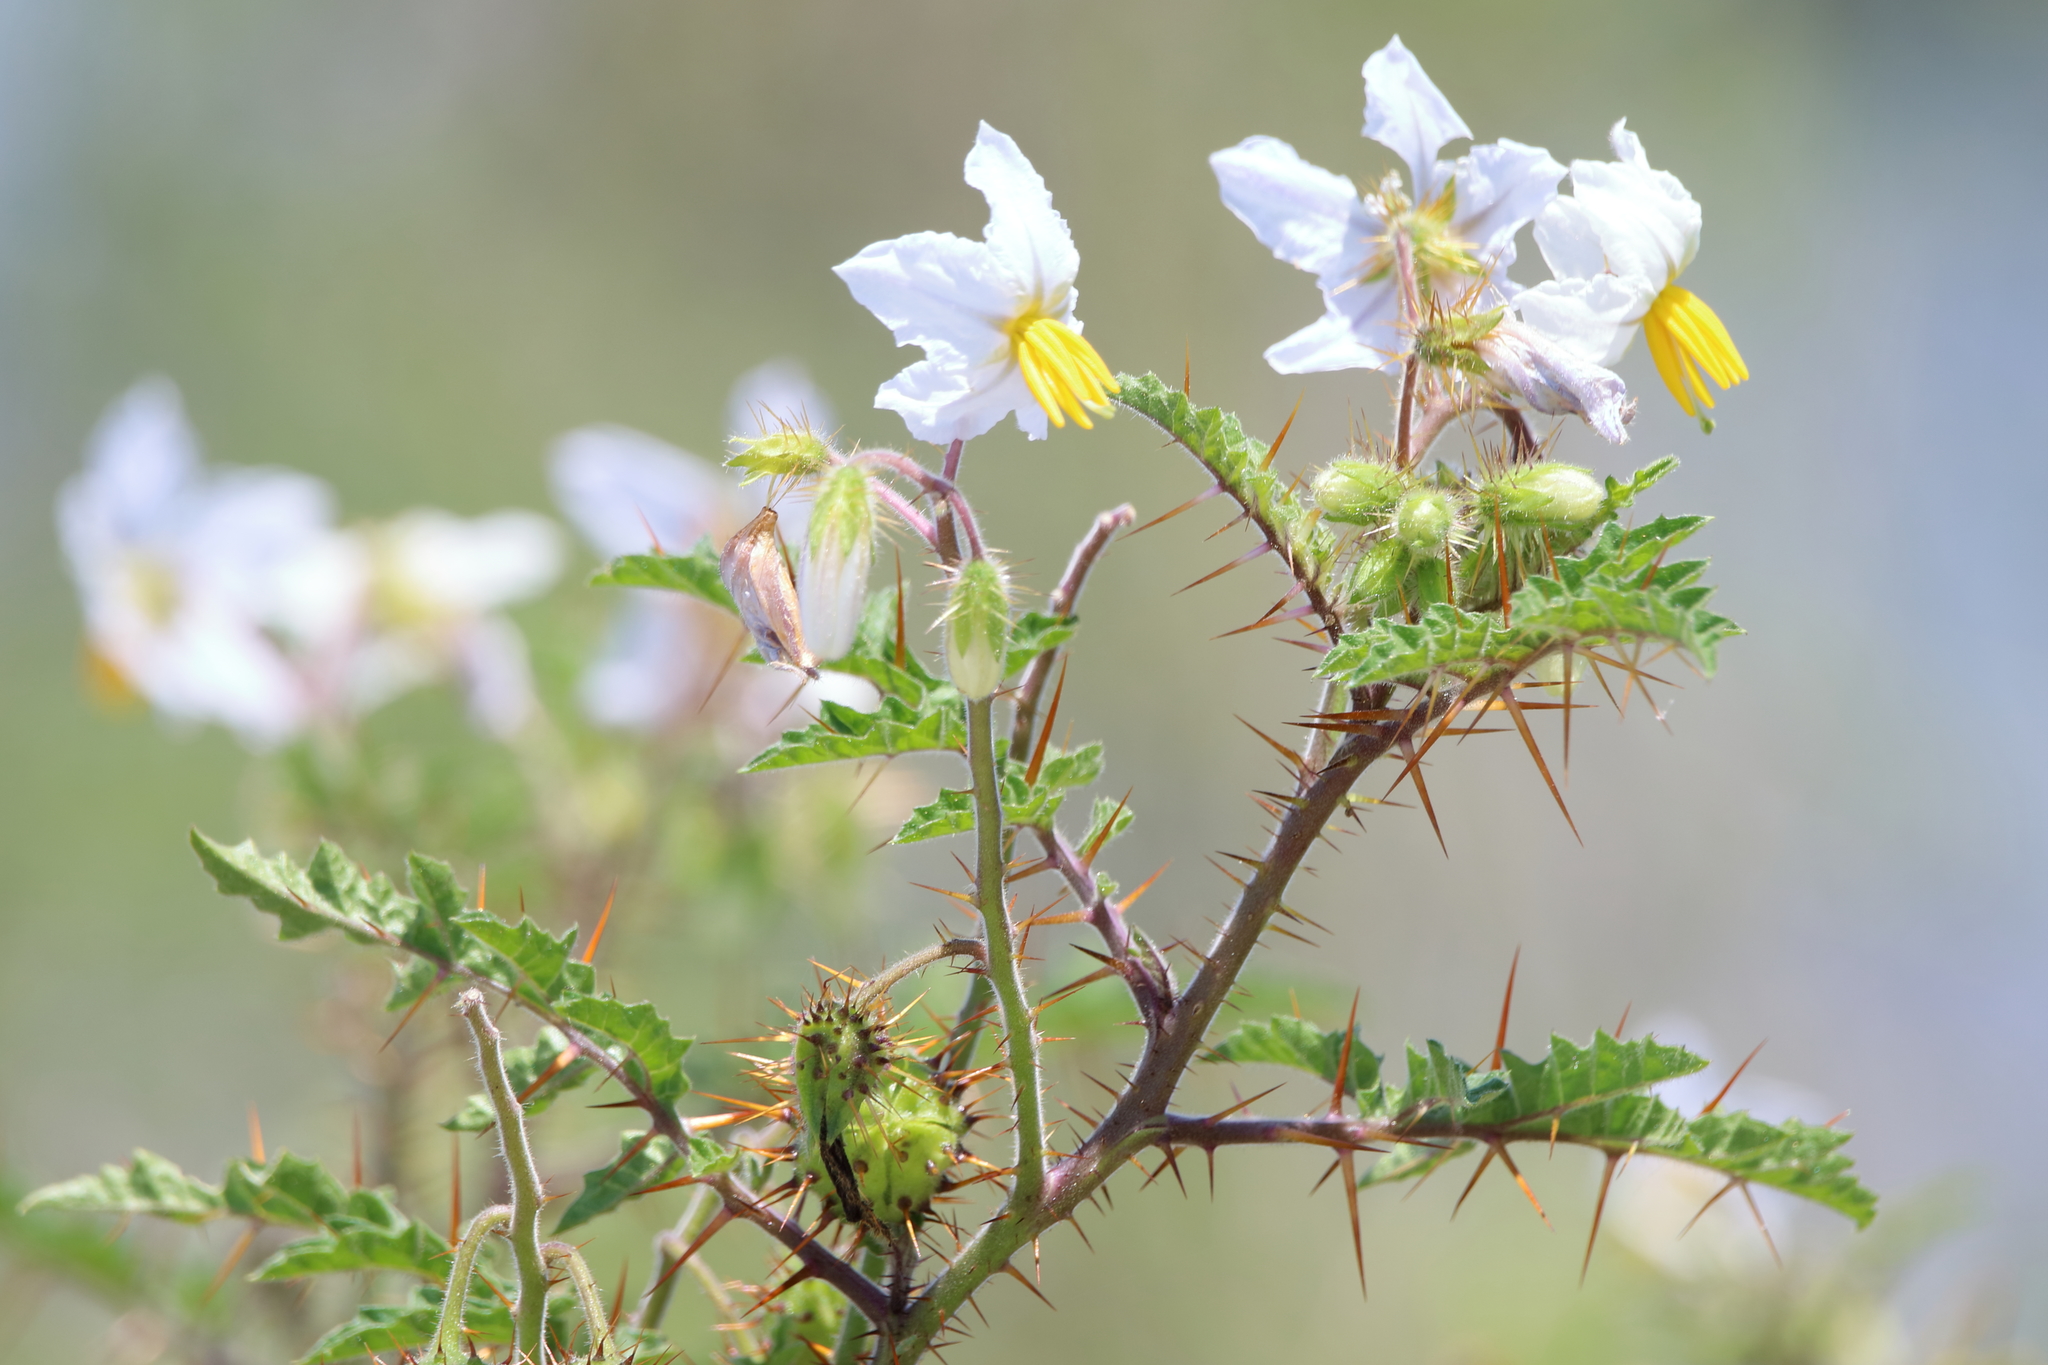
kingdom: Plantae
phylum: Tracheophyta
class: Magnoliopsida
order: Solanales
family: Solanaceae
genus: Solanum
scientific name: Solanum sisymbriifolium
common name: Red buffalo-bur
